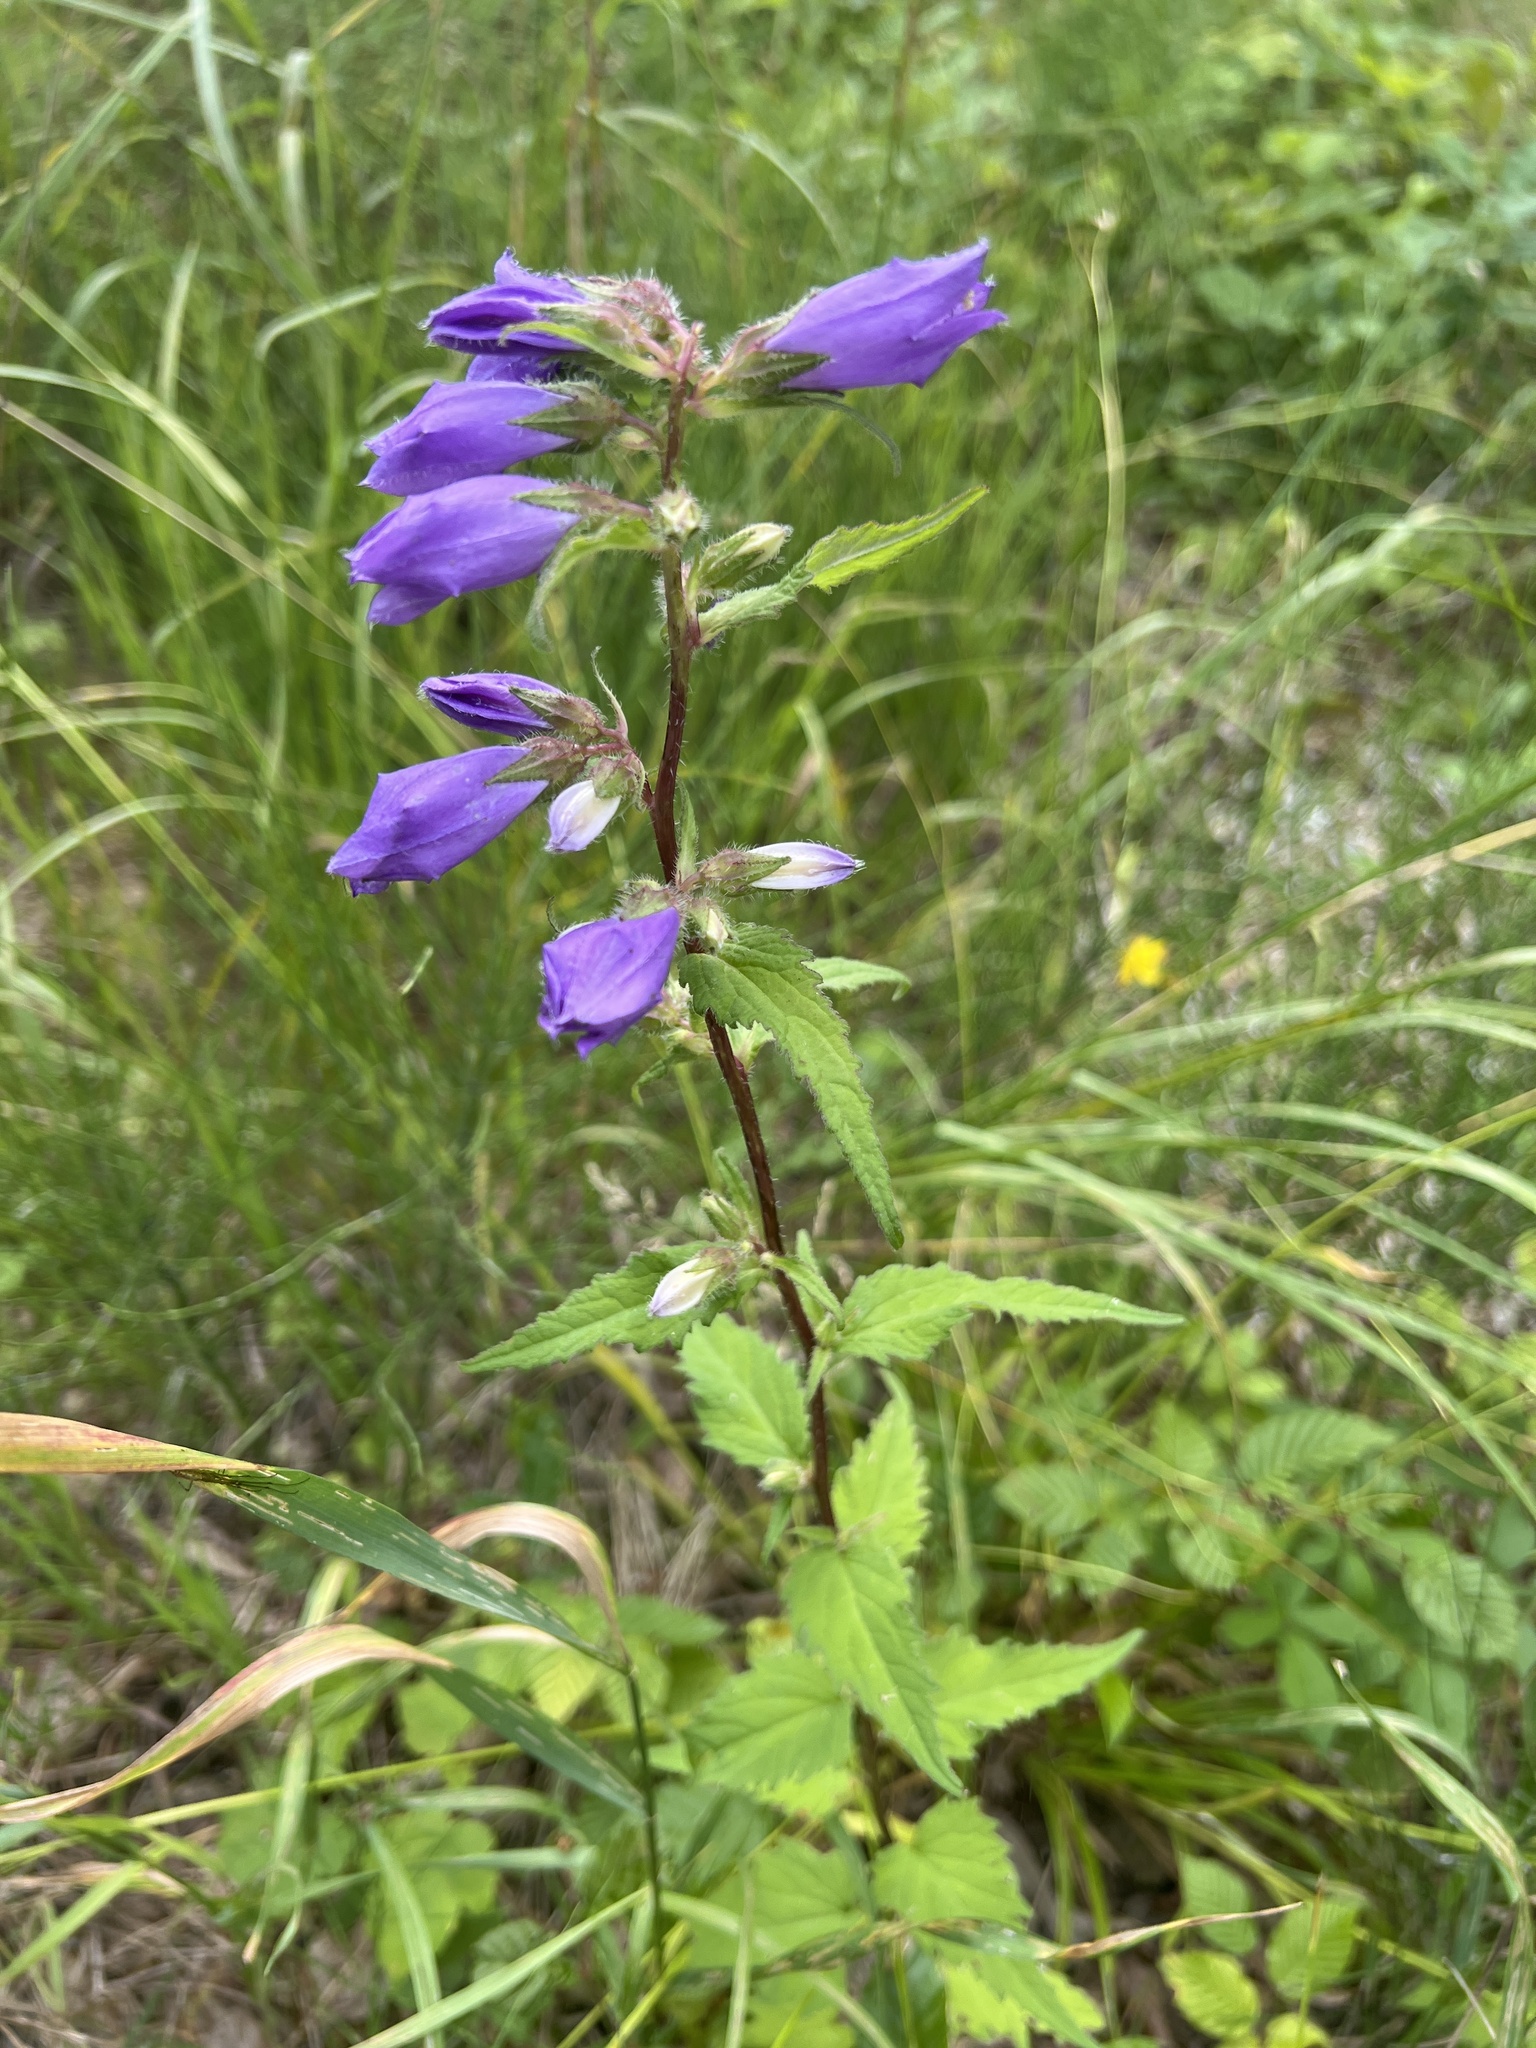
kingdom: Plantae
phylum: Tracheophyta
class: Magnoliopsida
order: Asterales
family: Campanulaceae
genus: Campanula
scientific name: Campanula trachelium
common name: Nettle-leaved bellflower
